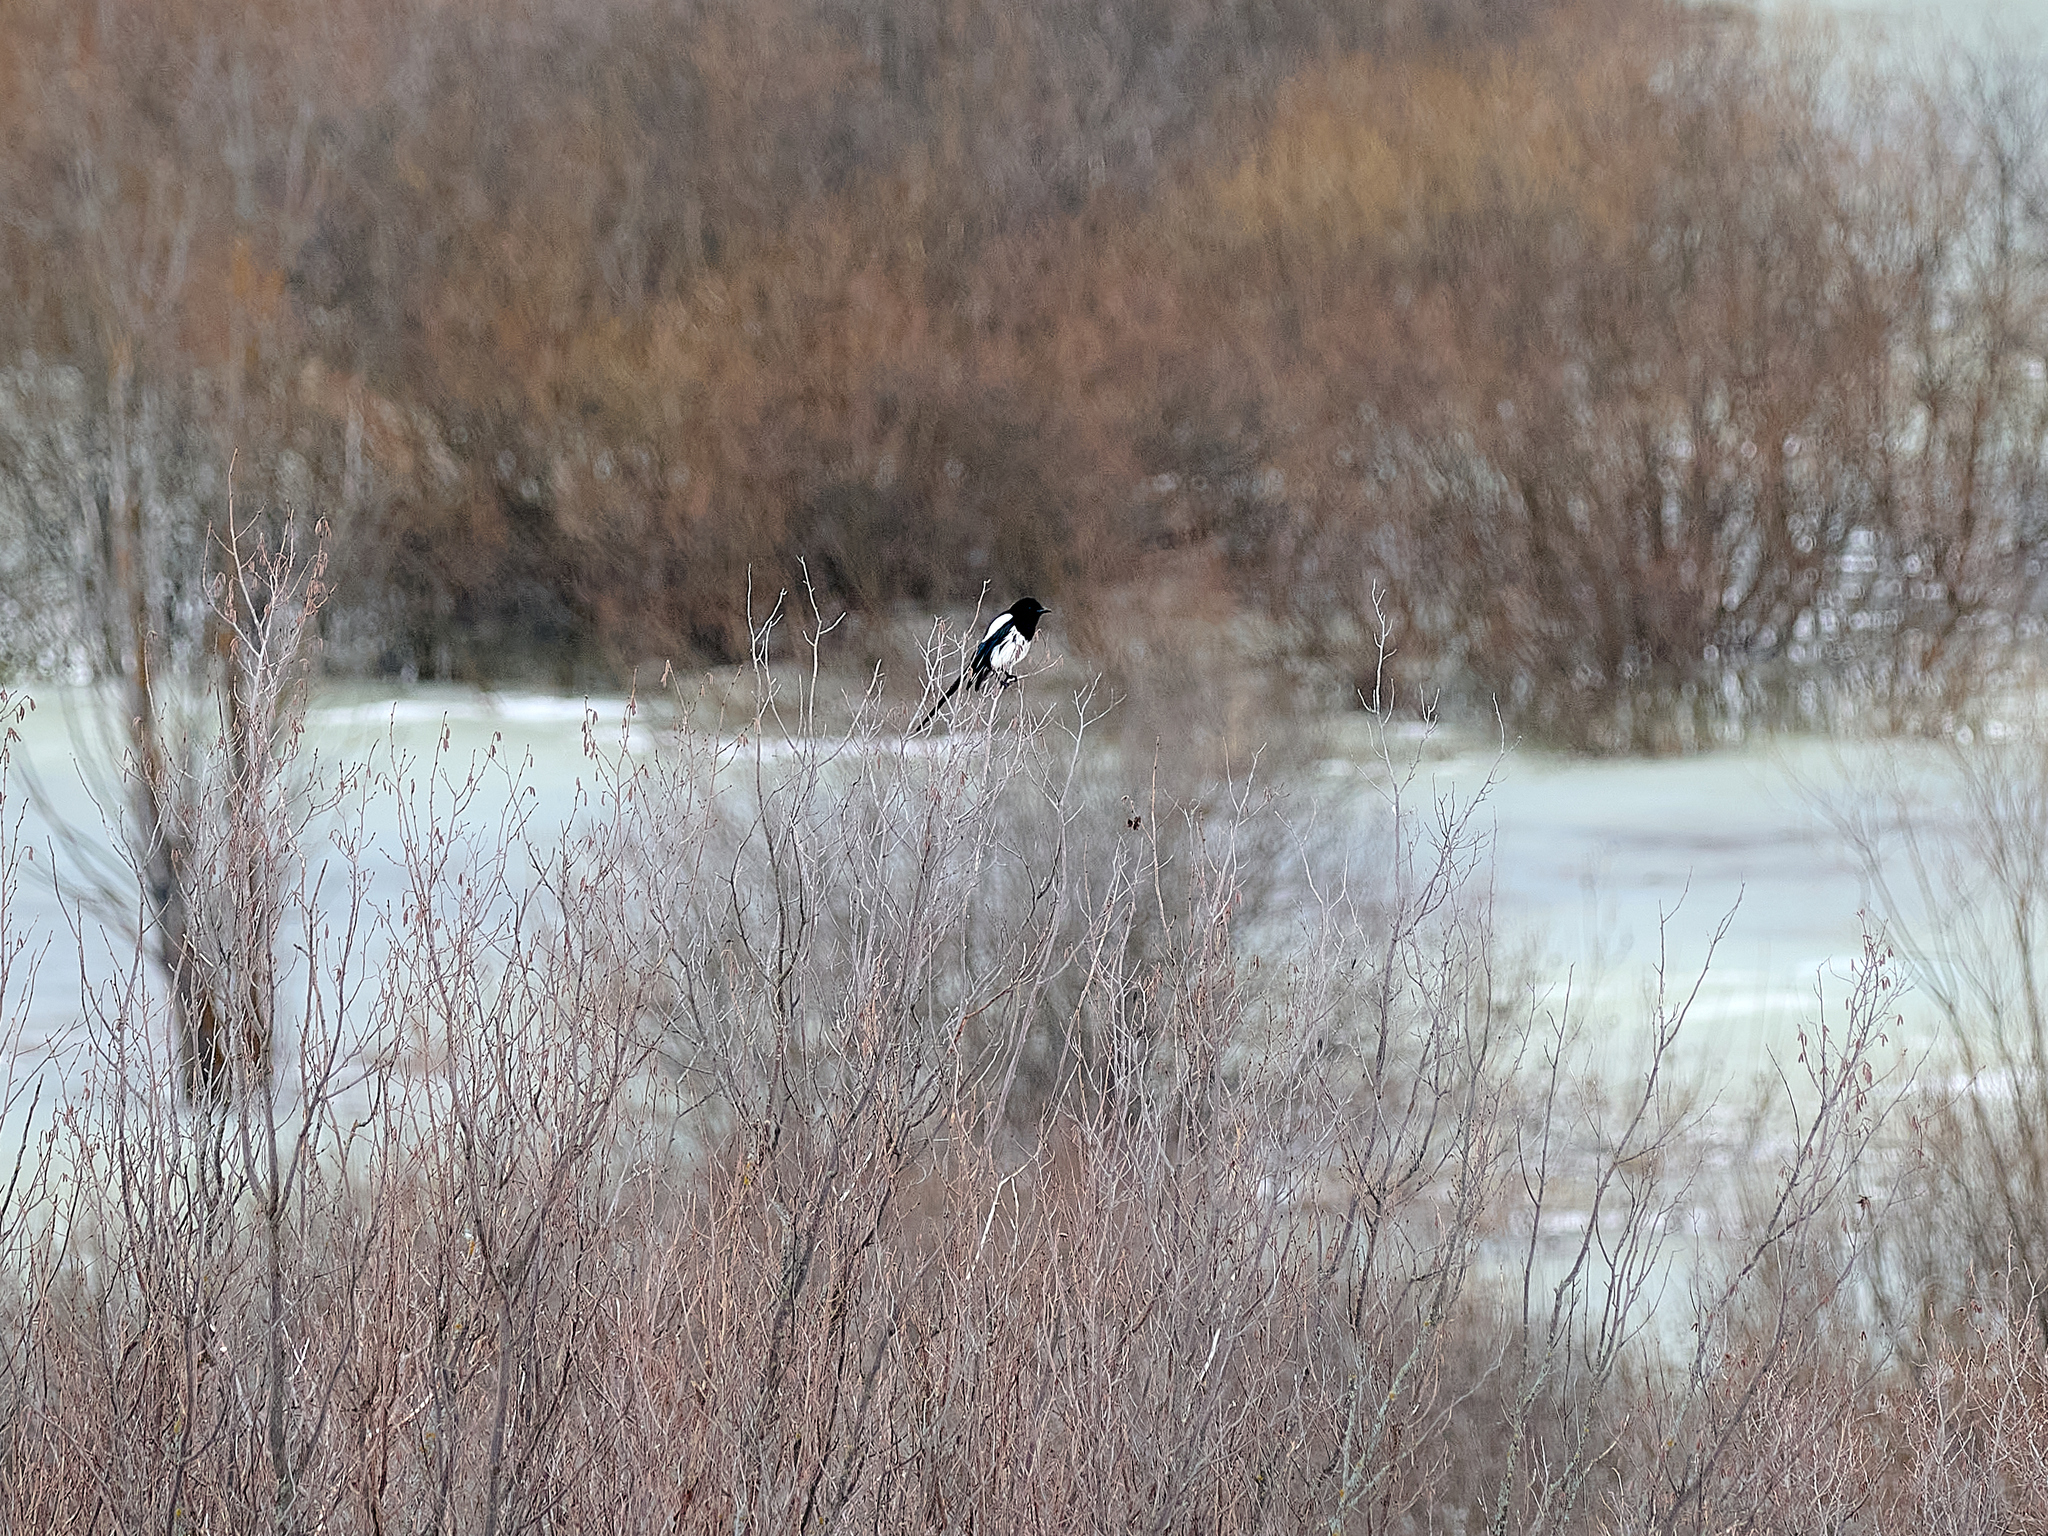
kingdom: Animalia
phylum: Chordata
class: Aves
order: Passeriformes
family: Corvidae
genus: Pica
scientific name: Pica pica
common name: Eurasian magpie
